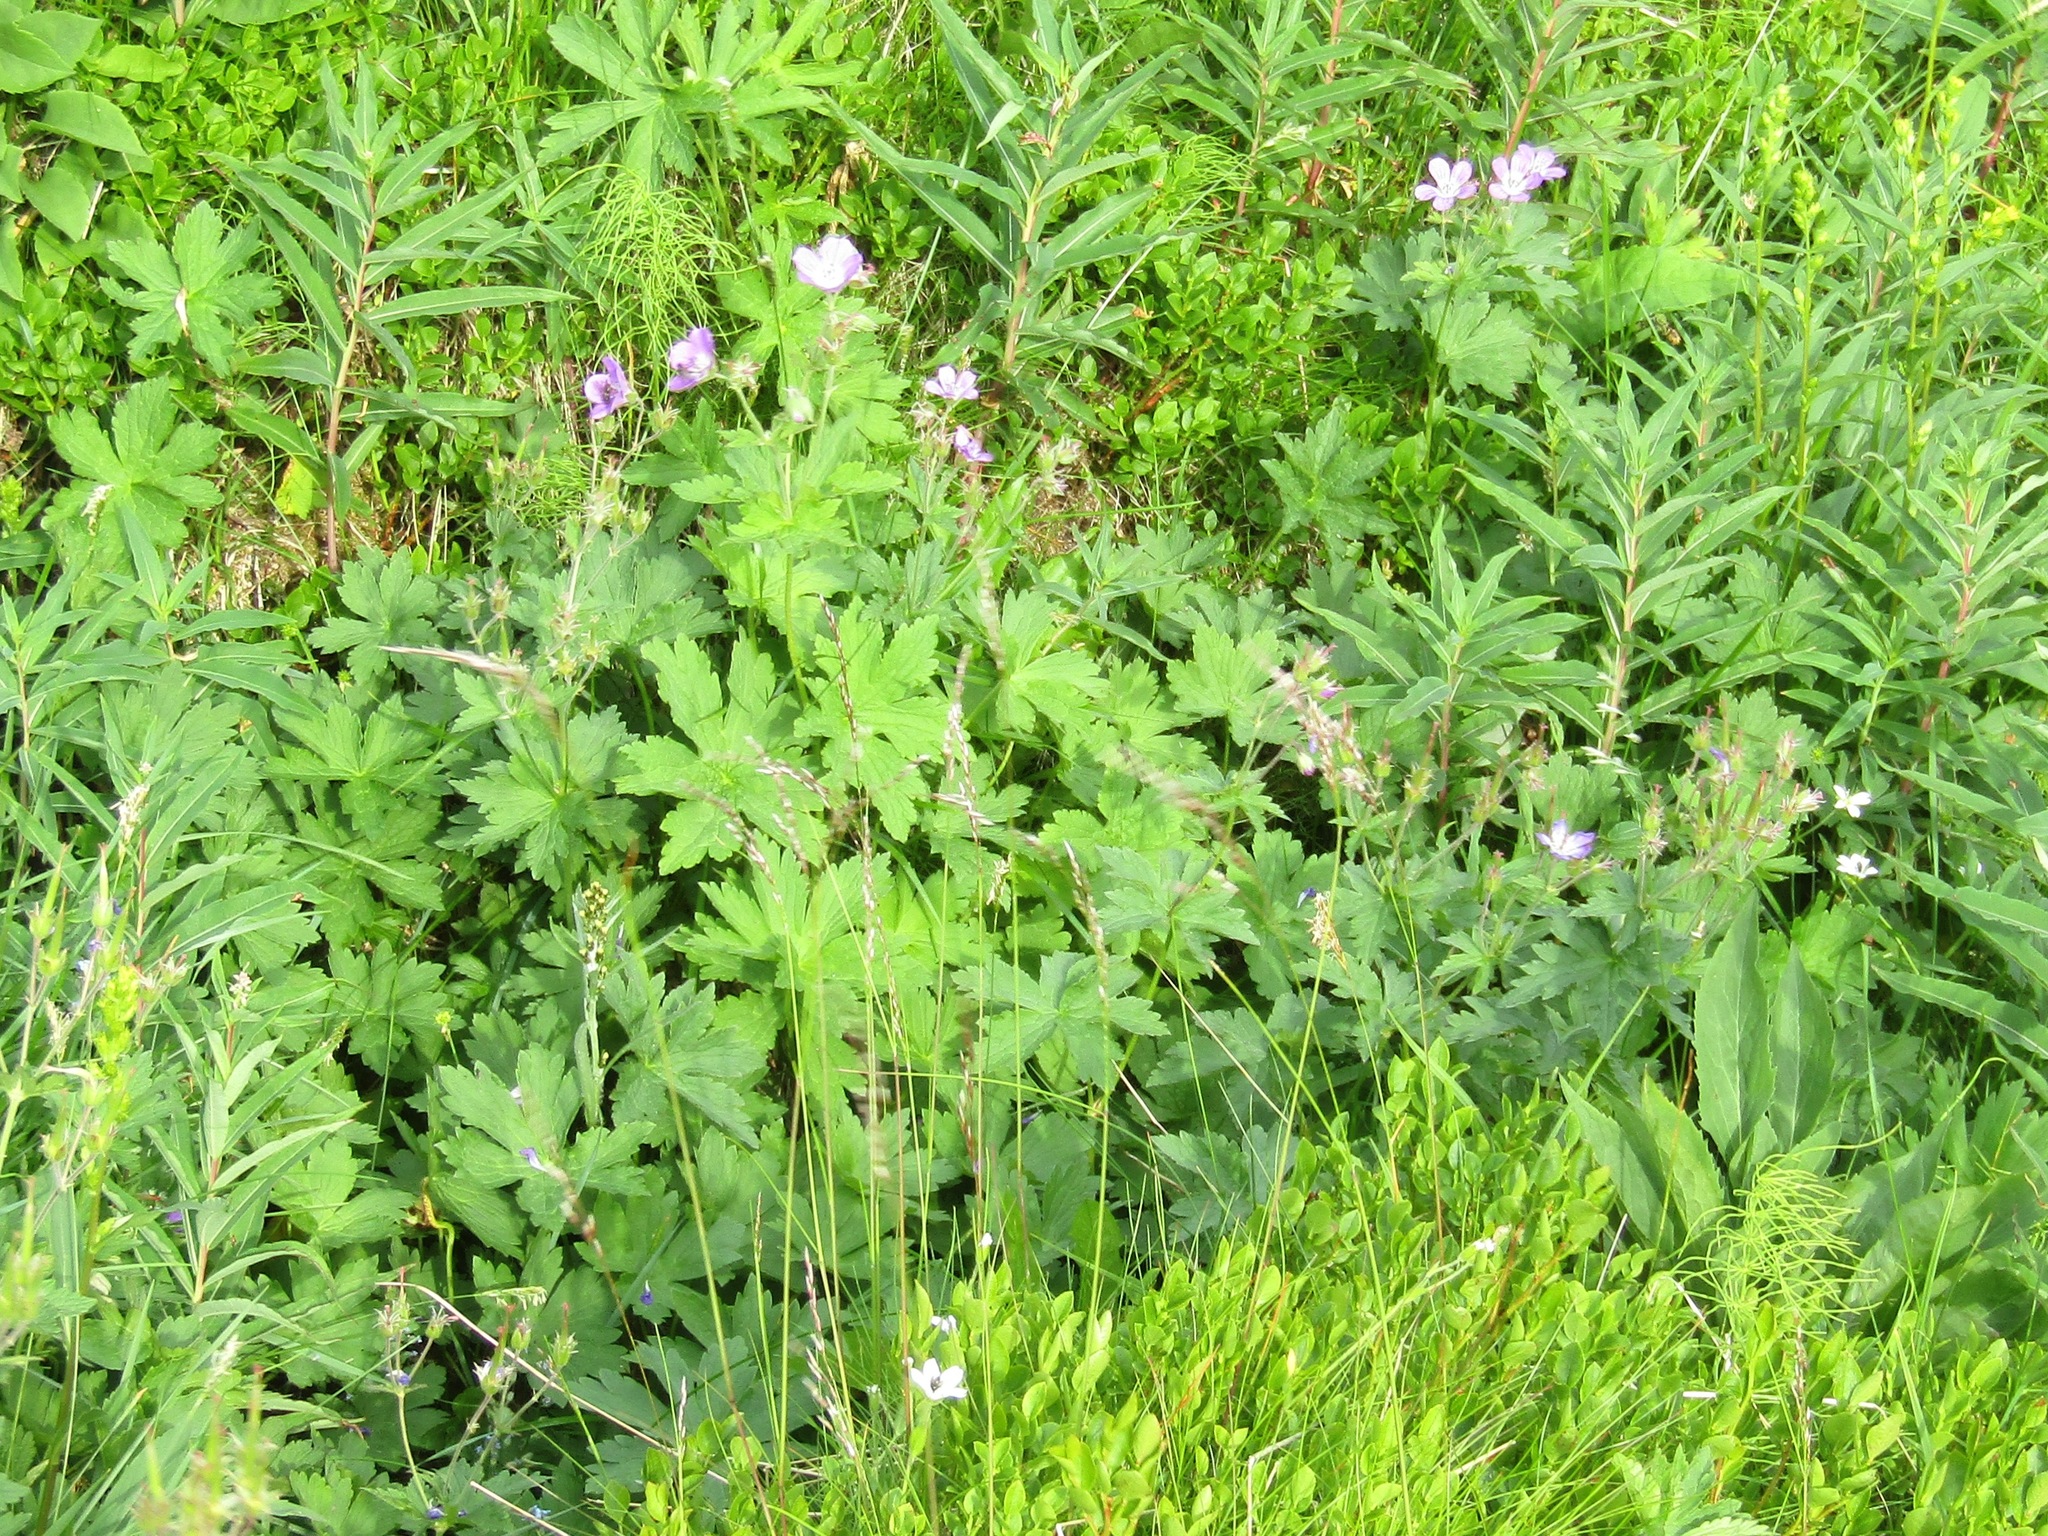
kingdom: Plantae
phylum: Tracheophyta
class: Magnoliopsida
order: Geraniales
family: Geraniaceae
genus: Geranium
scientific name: Geranium sylvaticum
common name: Wood crane's-bill
